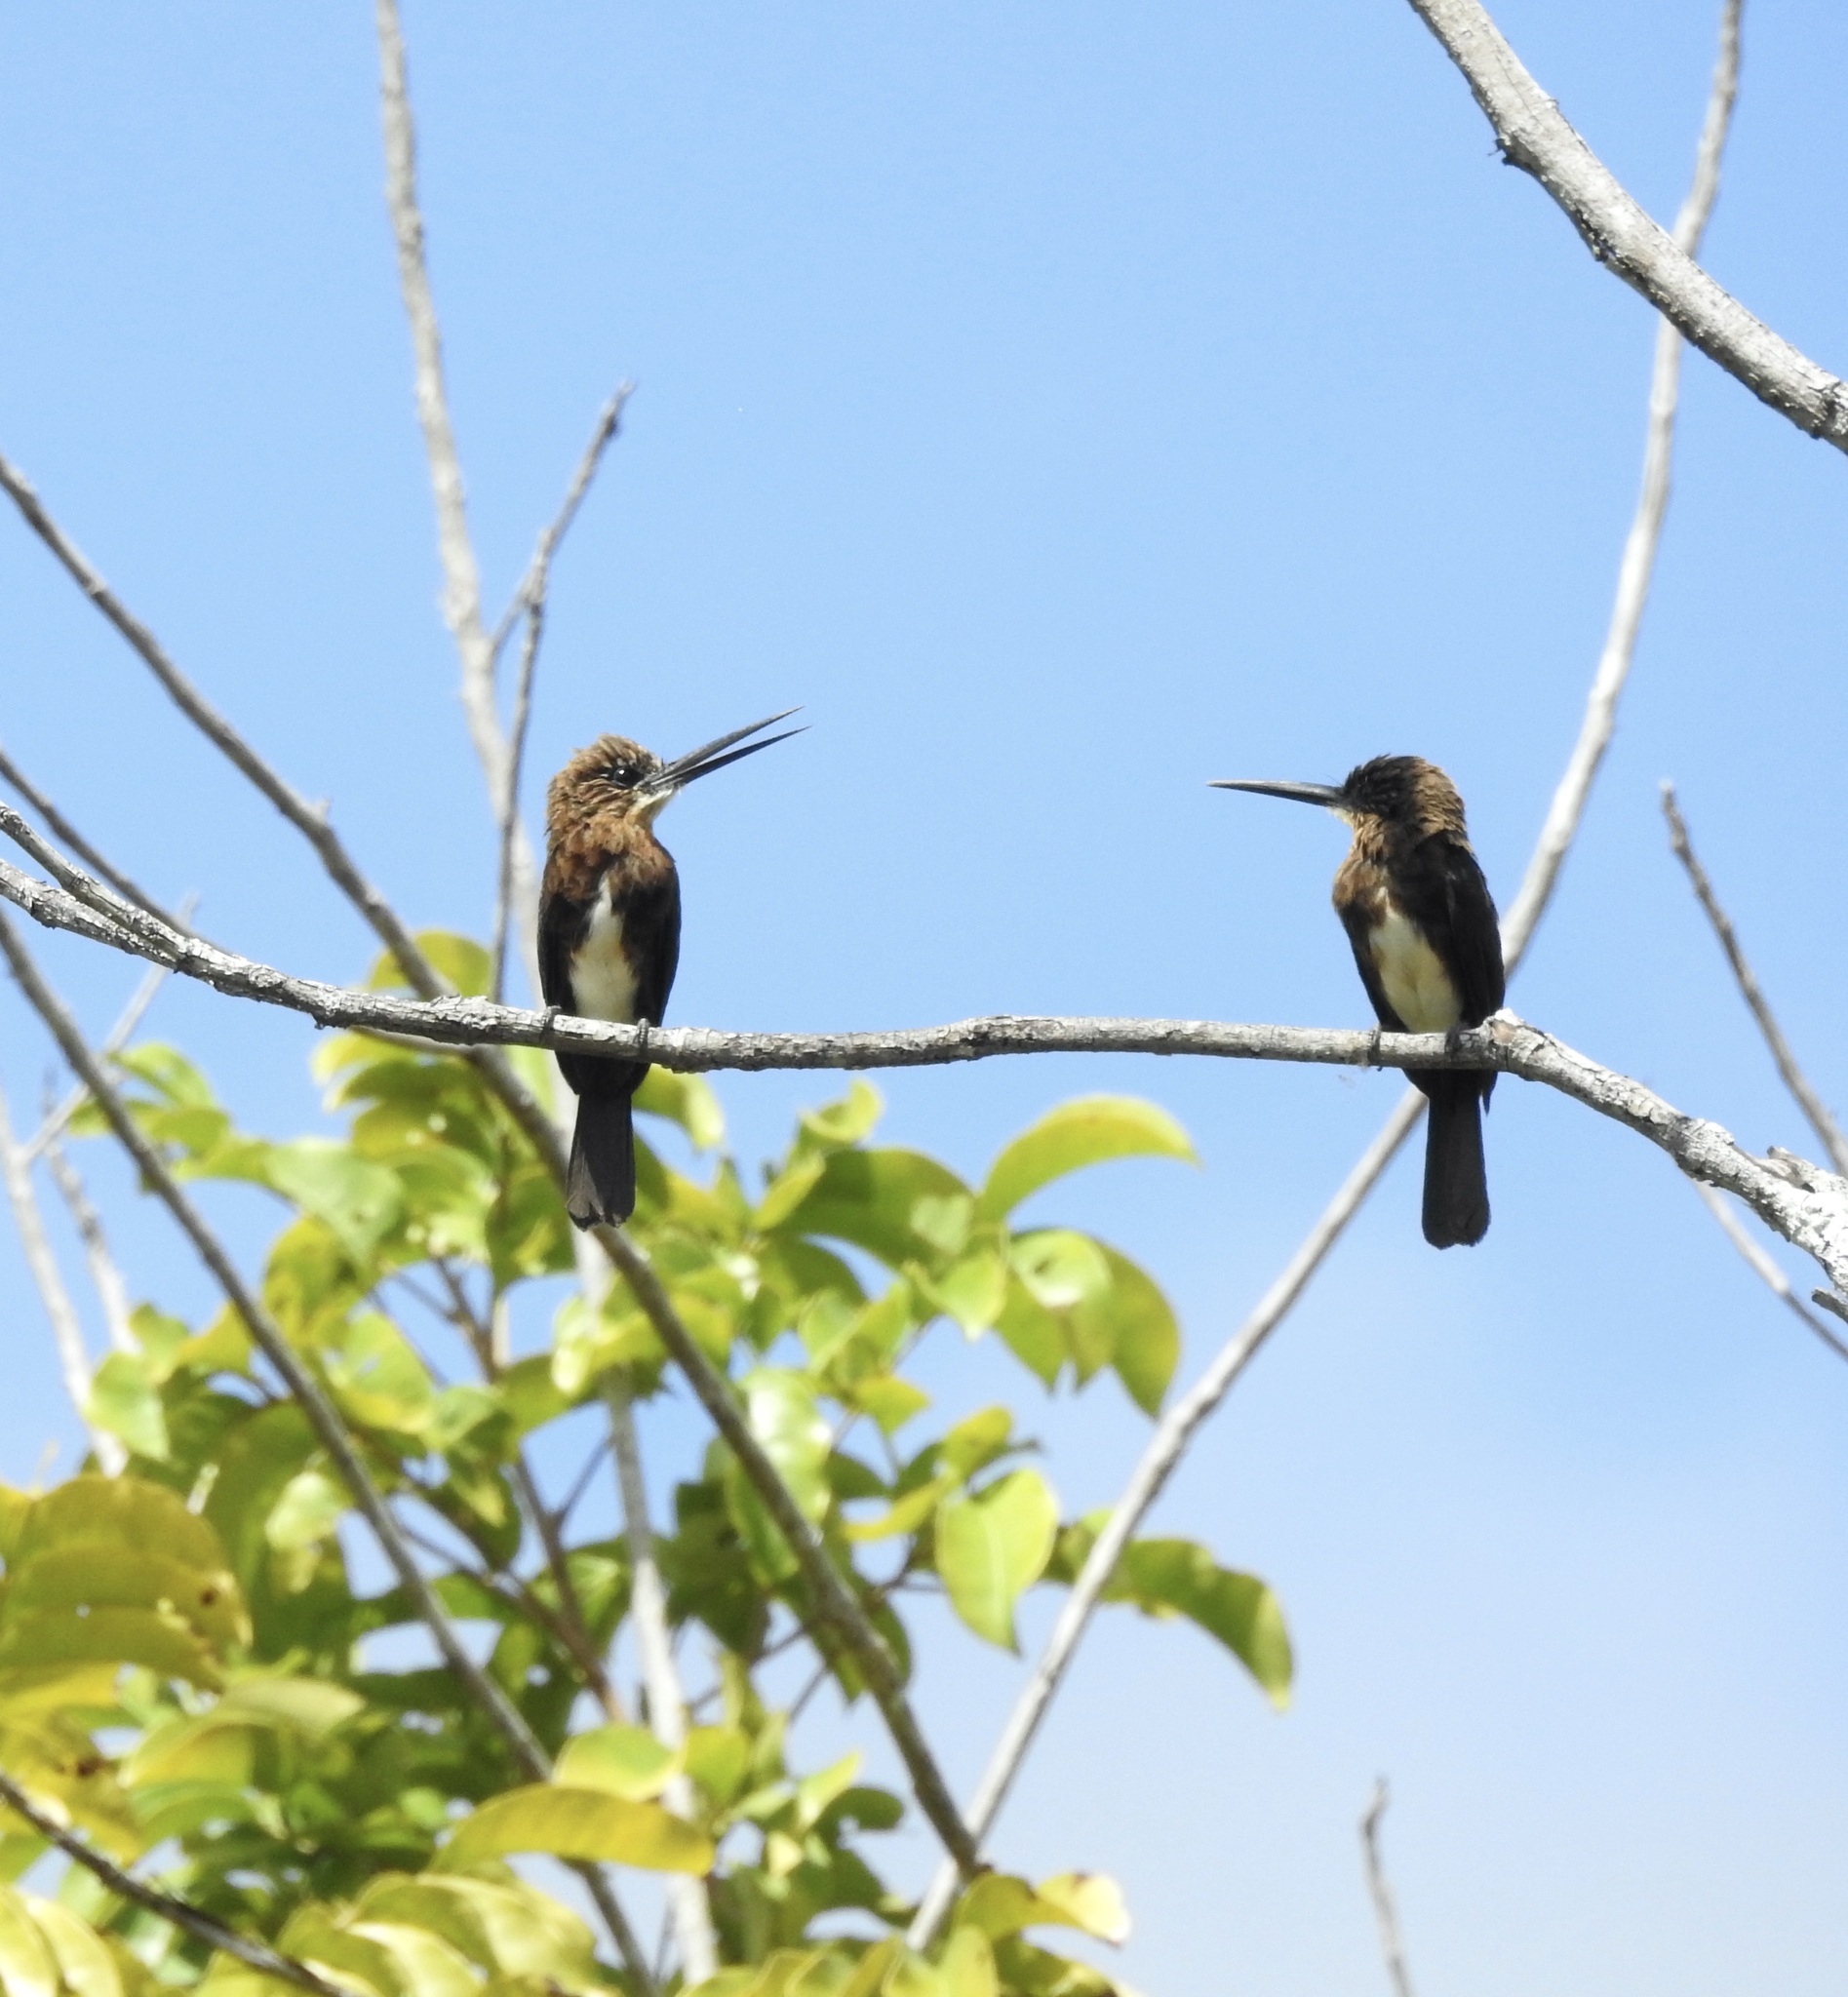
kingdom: Animalia
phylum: Chordata
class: Aves
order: Piciformes
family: Galbulidae
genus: Brachygalba
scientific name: Brachygalba lugubris
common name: Brown jacamar
